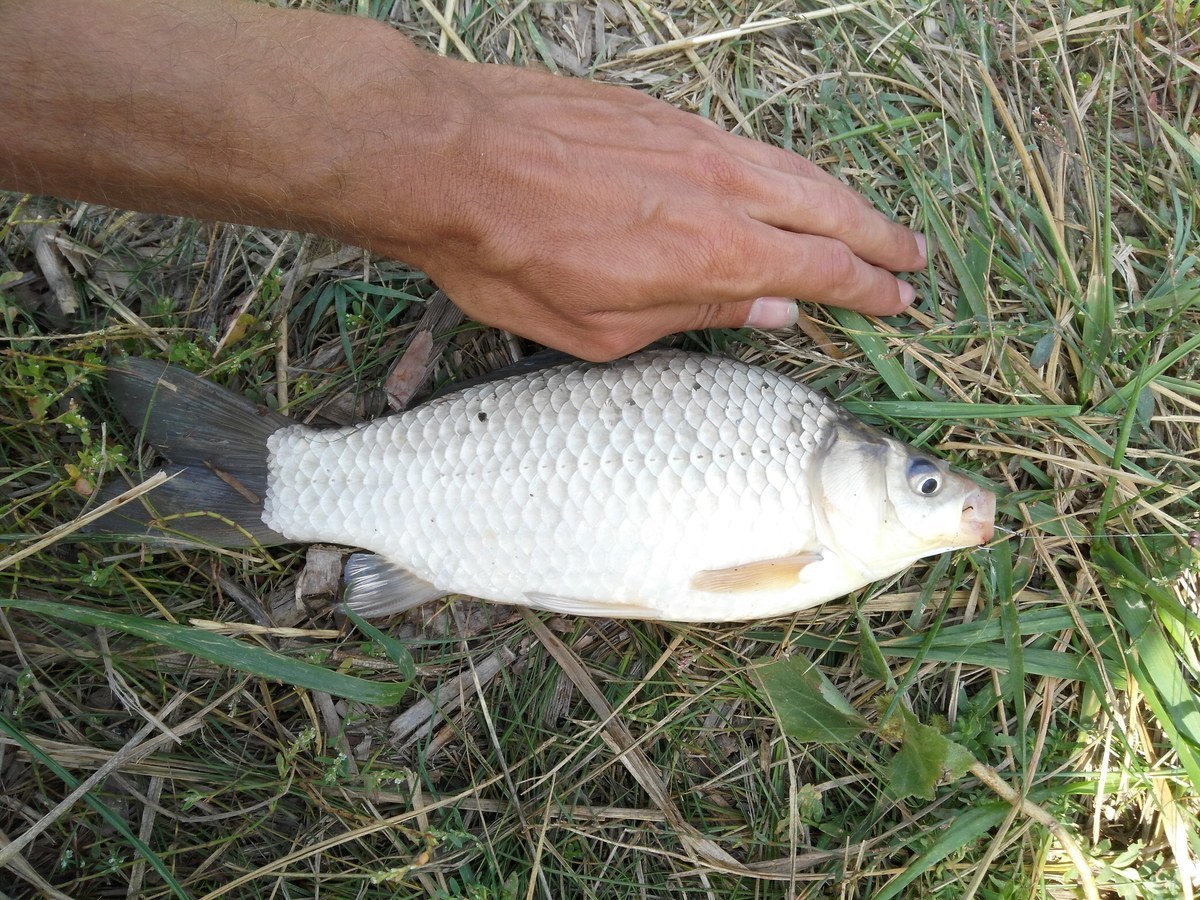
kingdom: Animalia
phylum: Chordata
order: Cypriniformes
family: Cyprinidae
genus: Carassius
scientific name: Carassius gibelio
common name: Prussian carp
